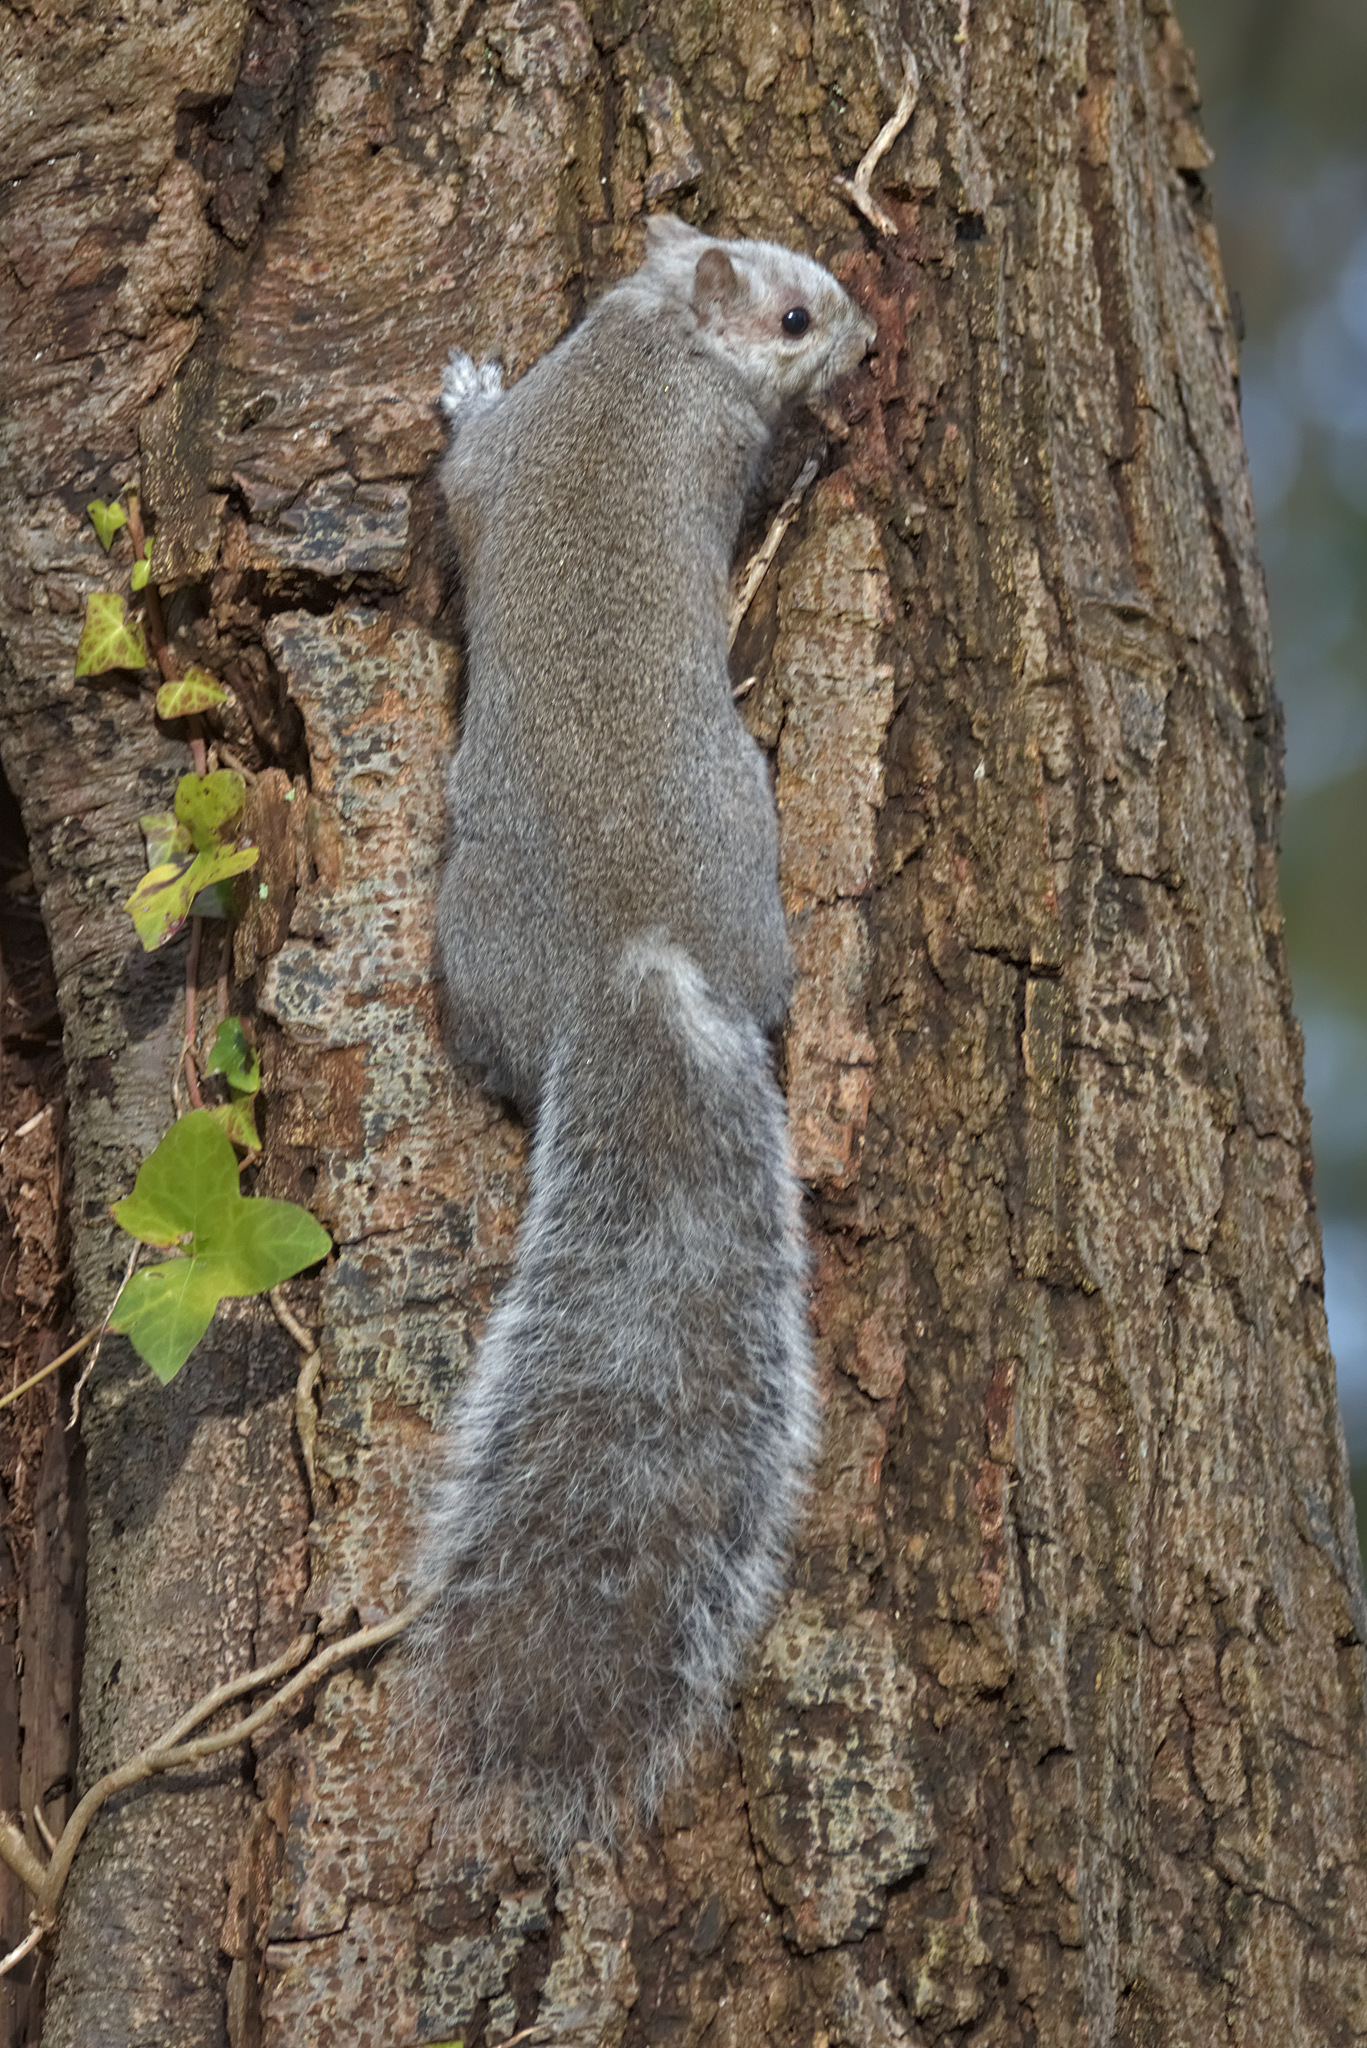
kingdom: Animalia
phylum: Chordata
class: Mammalia
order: Rodentia
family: Sciuridae
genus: Sciurus
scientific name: Sciurus carolinensis
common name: Eastern gray squirrel
